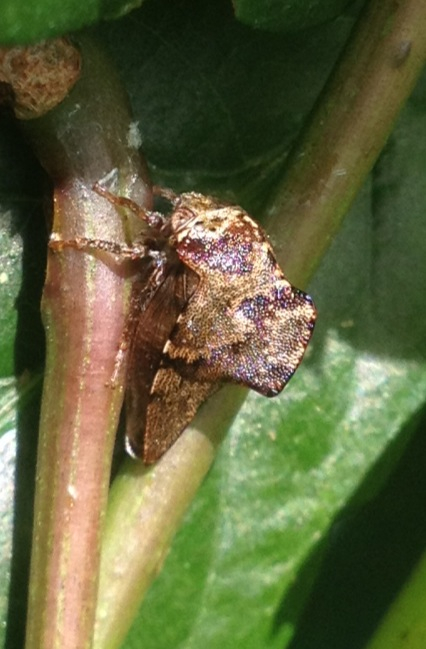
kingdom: Animalia
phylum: Arthropoda
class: Insecta
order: Hemiptera
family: Membracidae
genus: Telamona
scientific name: Telamona ampelopsidis
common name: Virginia creeper treehopper
